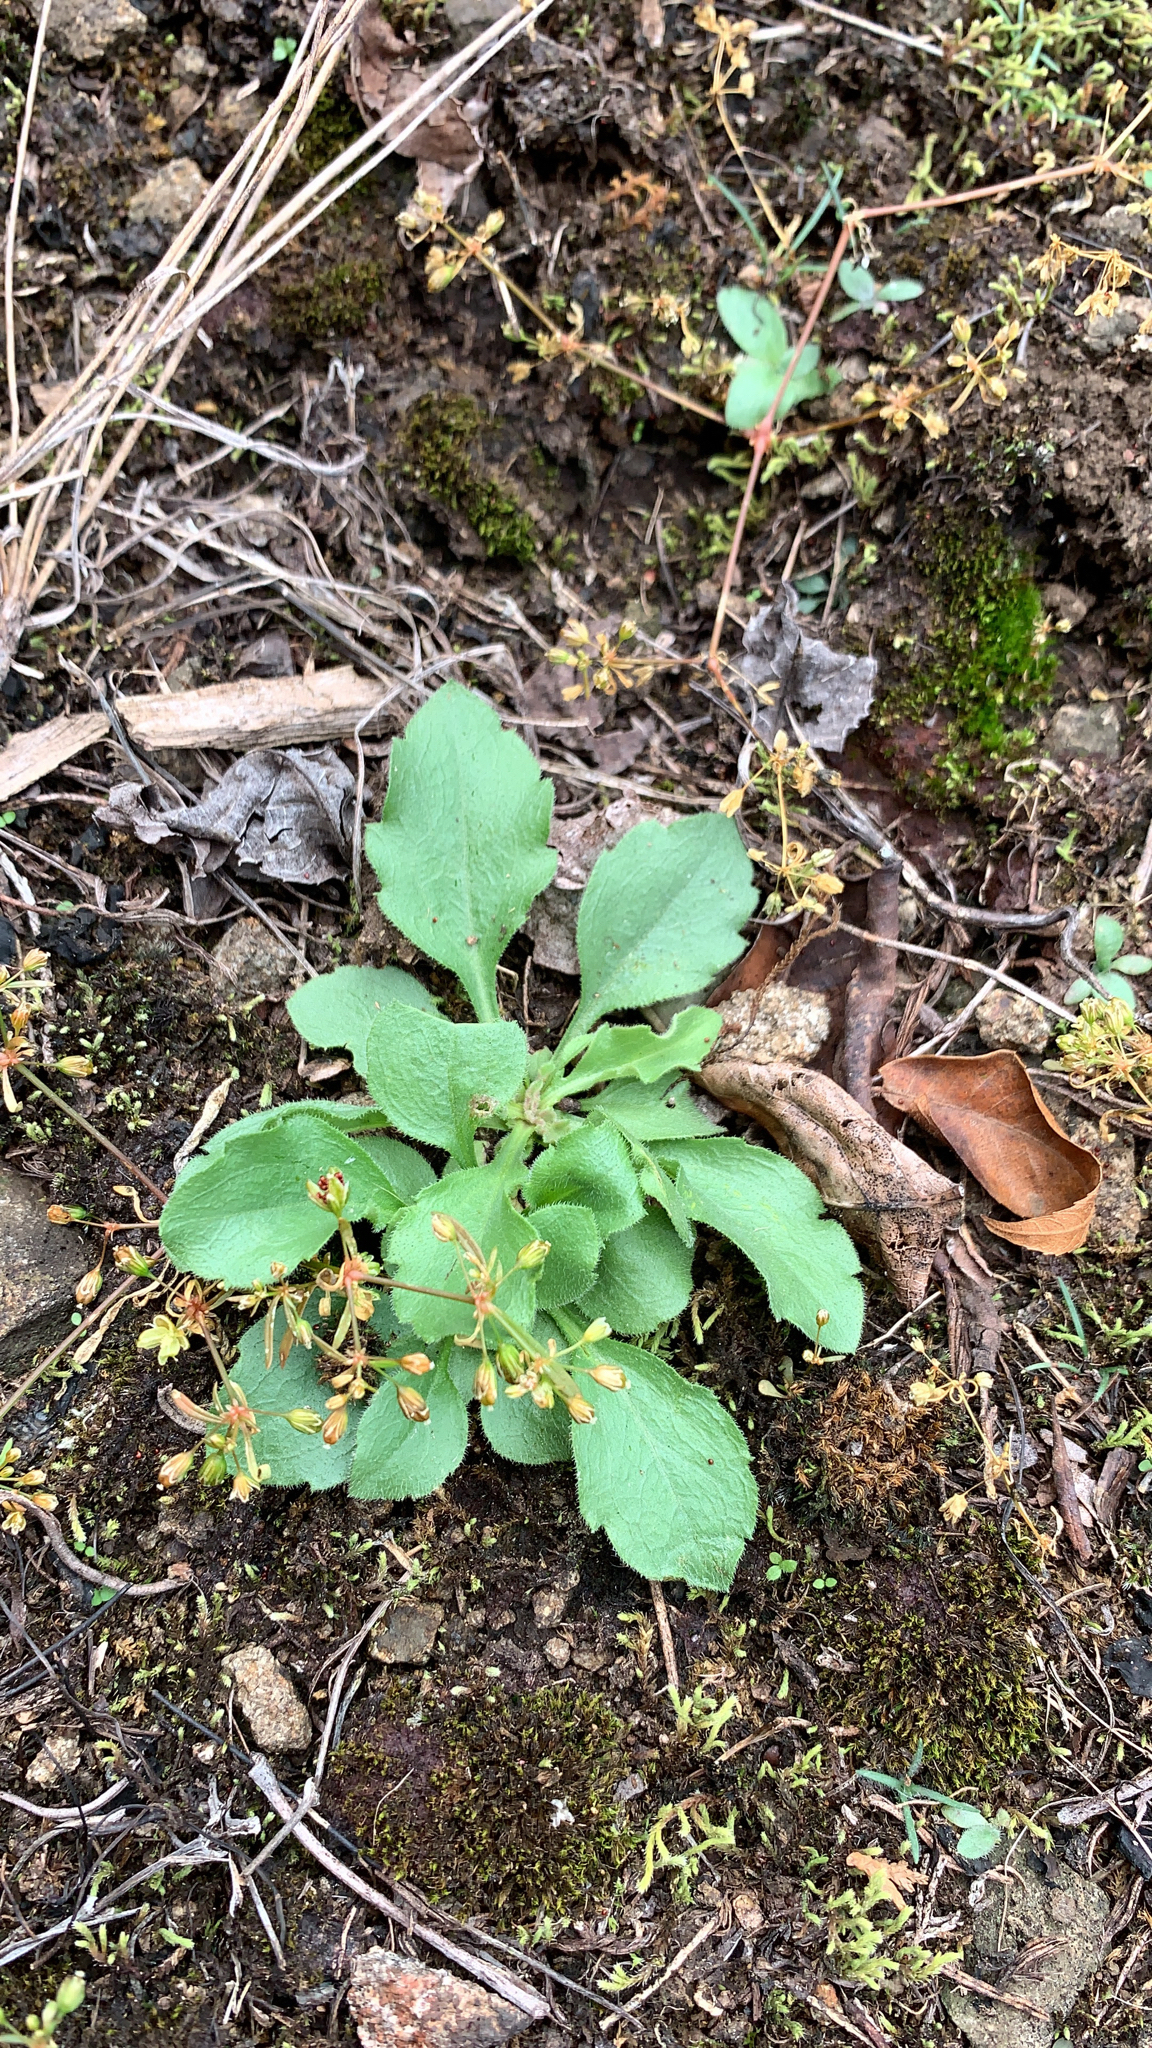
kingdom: Plantae
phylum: Tracheophyta
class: Magnoliopsida
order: Saxifragales
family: Saxifragaceae
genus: Micranthes
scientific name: Micranthes virginiensis
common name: Early saxifrage
